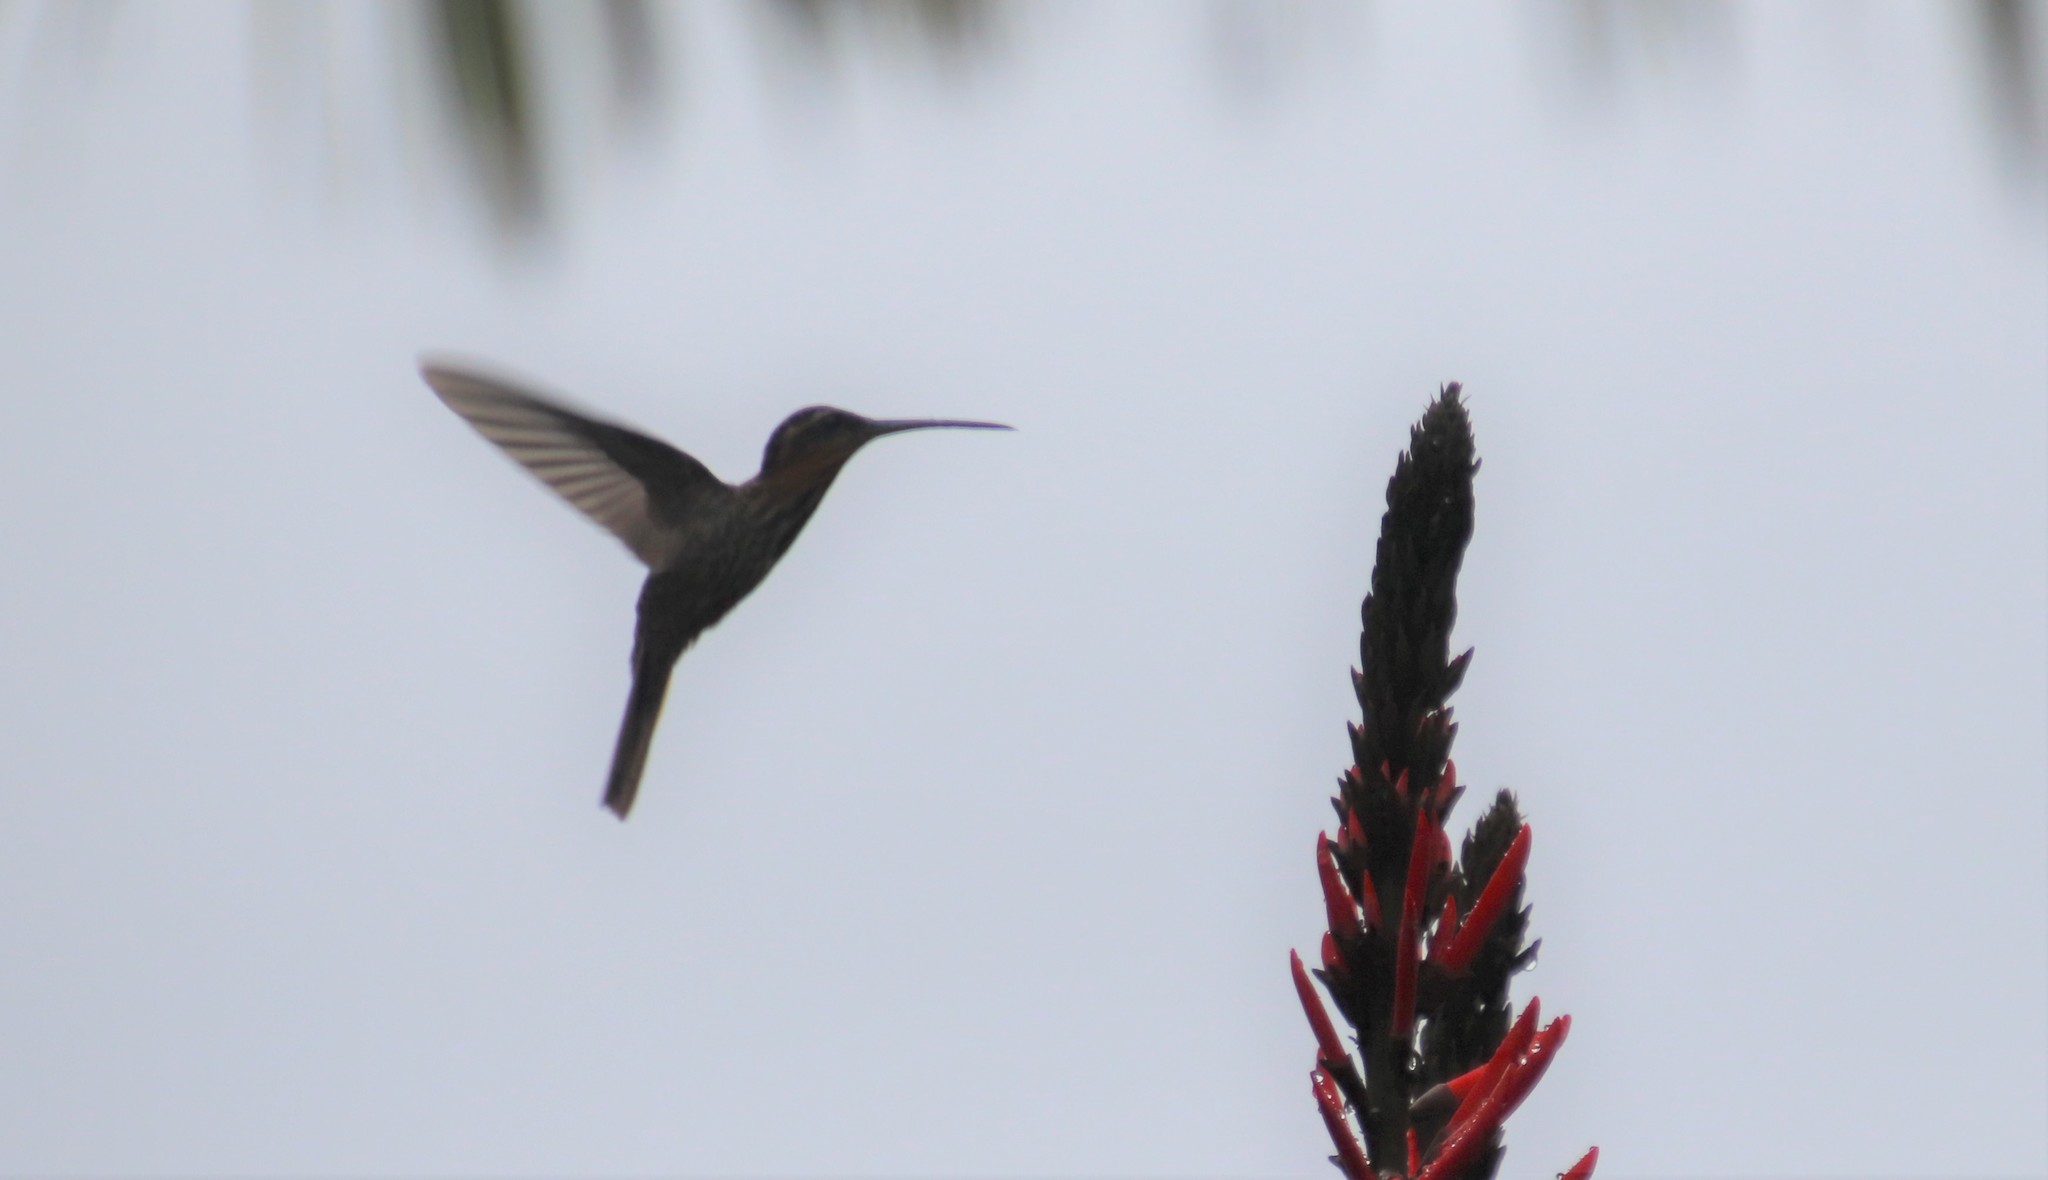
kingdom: Animalia
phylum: Chordata
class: Aves
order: Apodiformes
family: Trochilidae
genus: Ramphodon
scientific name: Ramphodon naevius
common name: Saw-billed hermit
